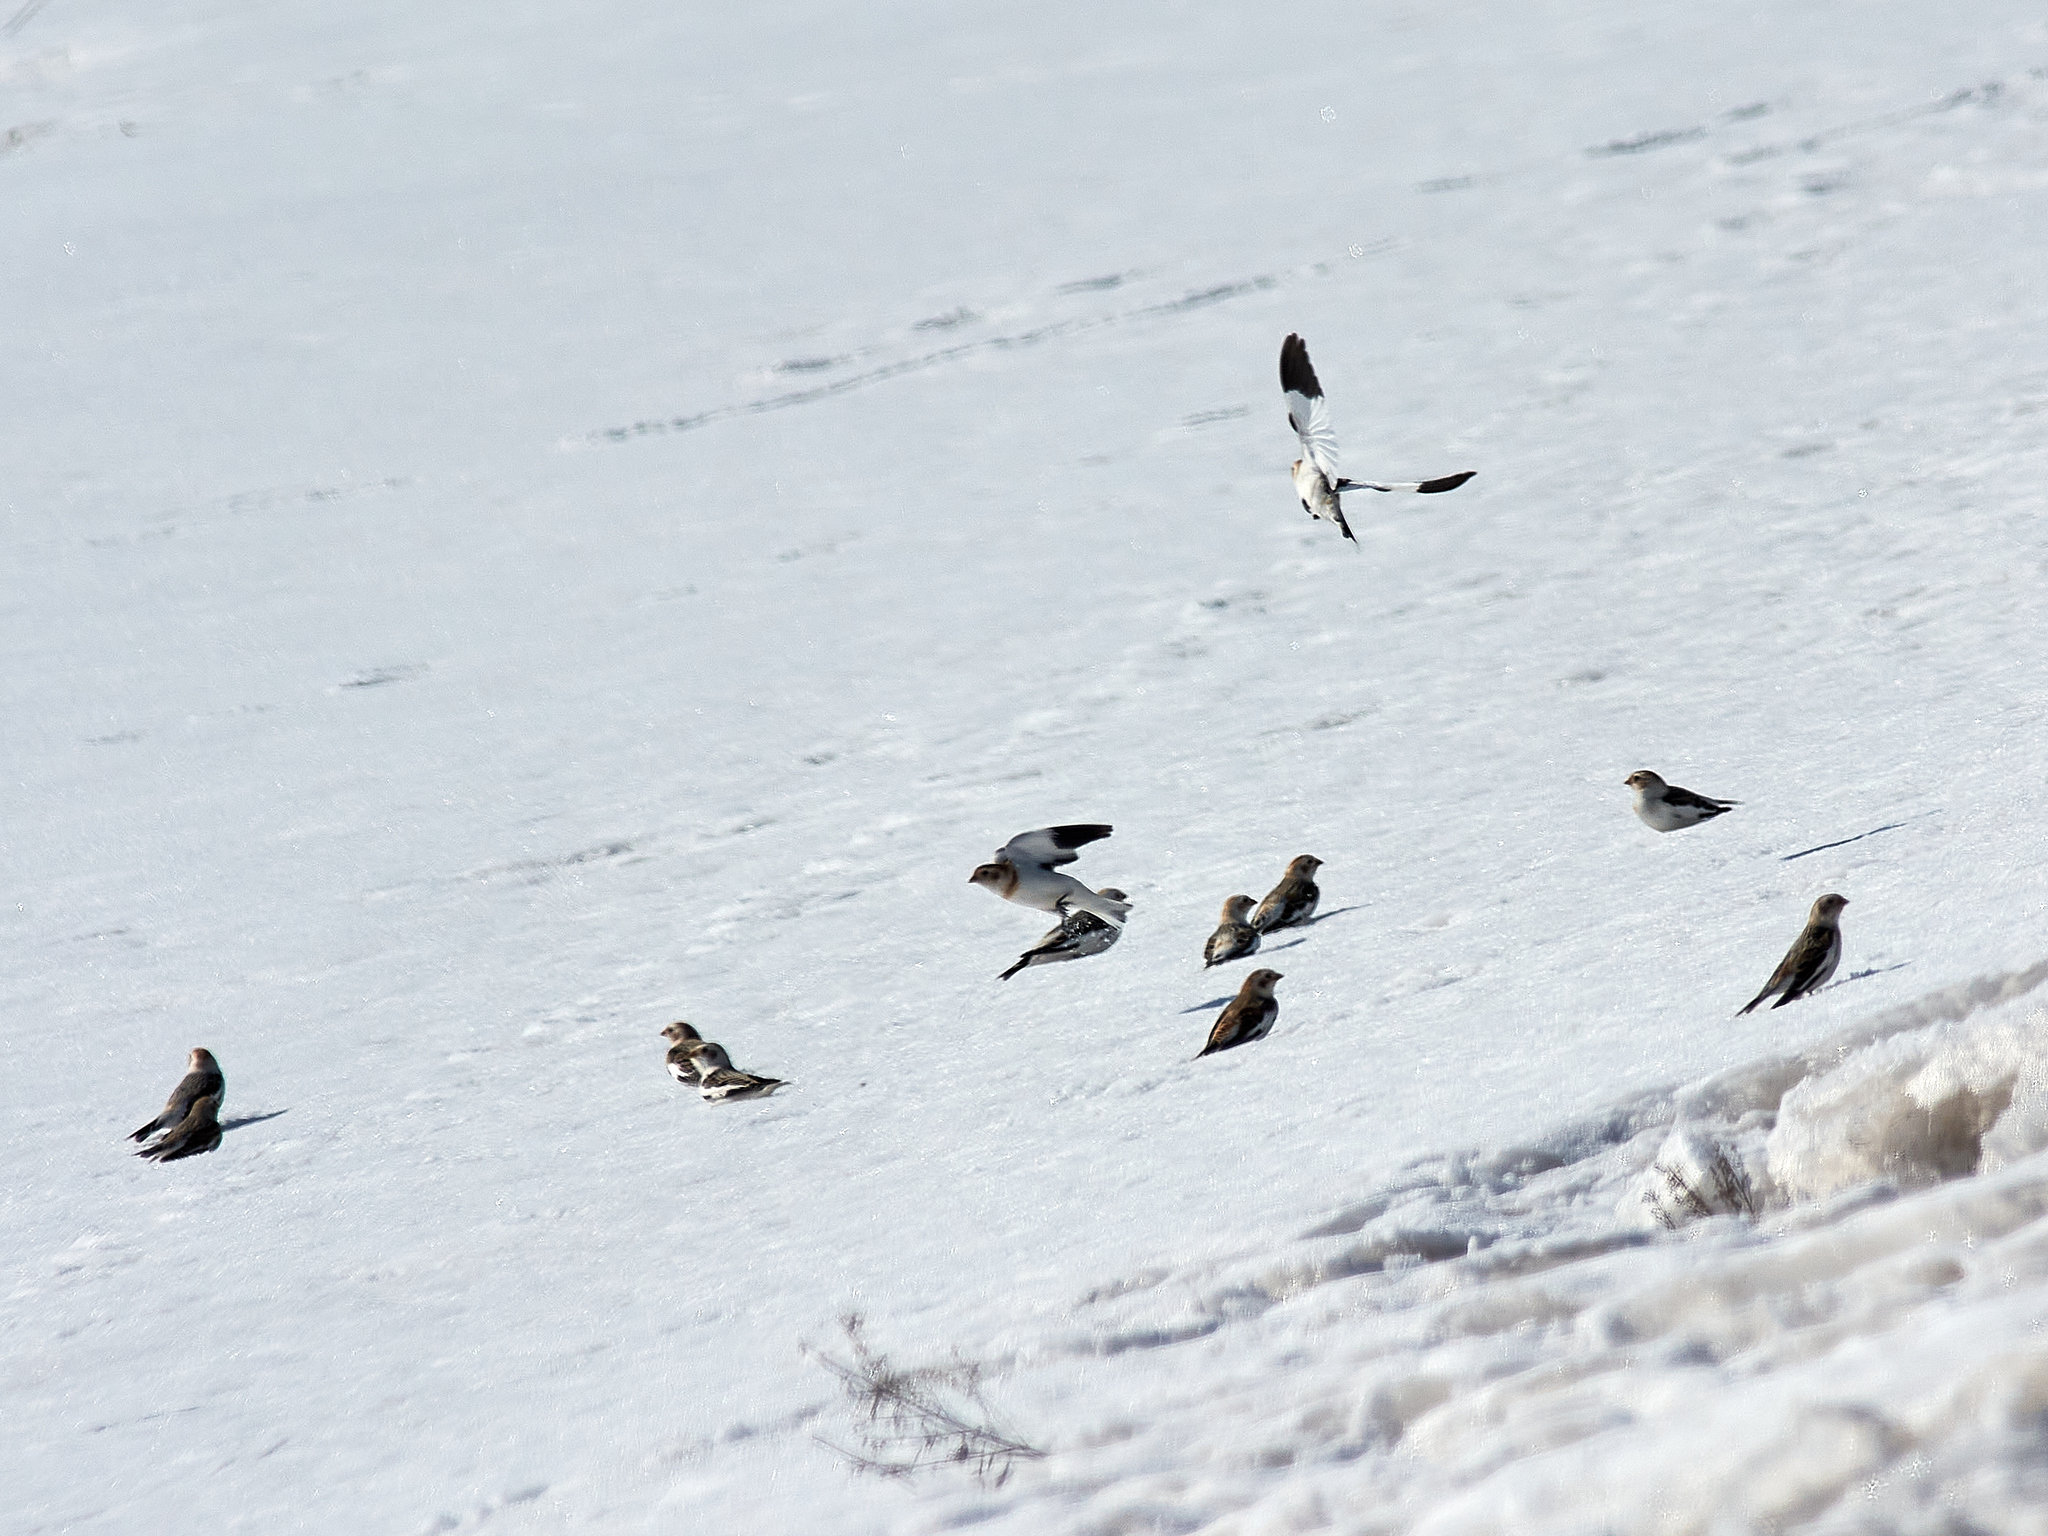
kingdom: Animalia
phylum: Chordata
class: Aves
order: Passeriformes
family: Calcariidae
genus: Plectrophenax
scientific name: Plectrophenax nivalis
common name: Snow bunting
